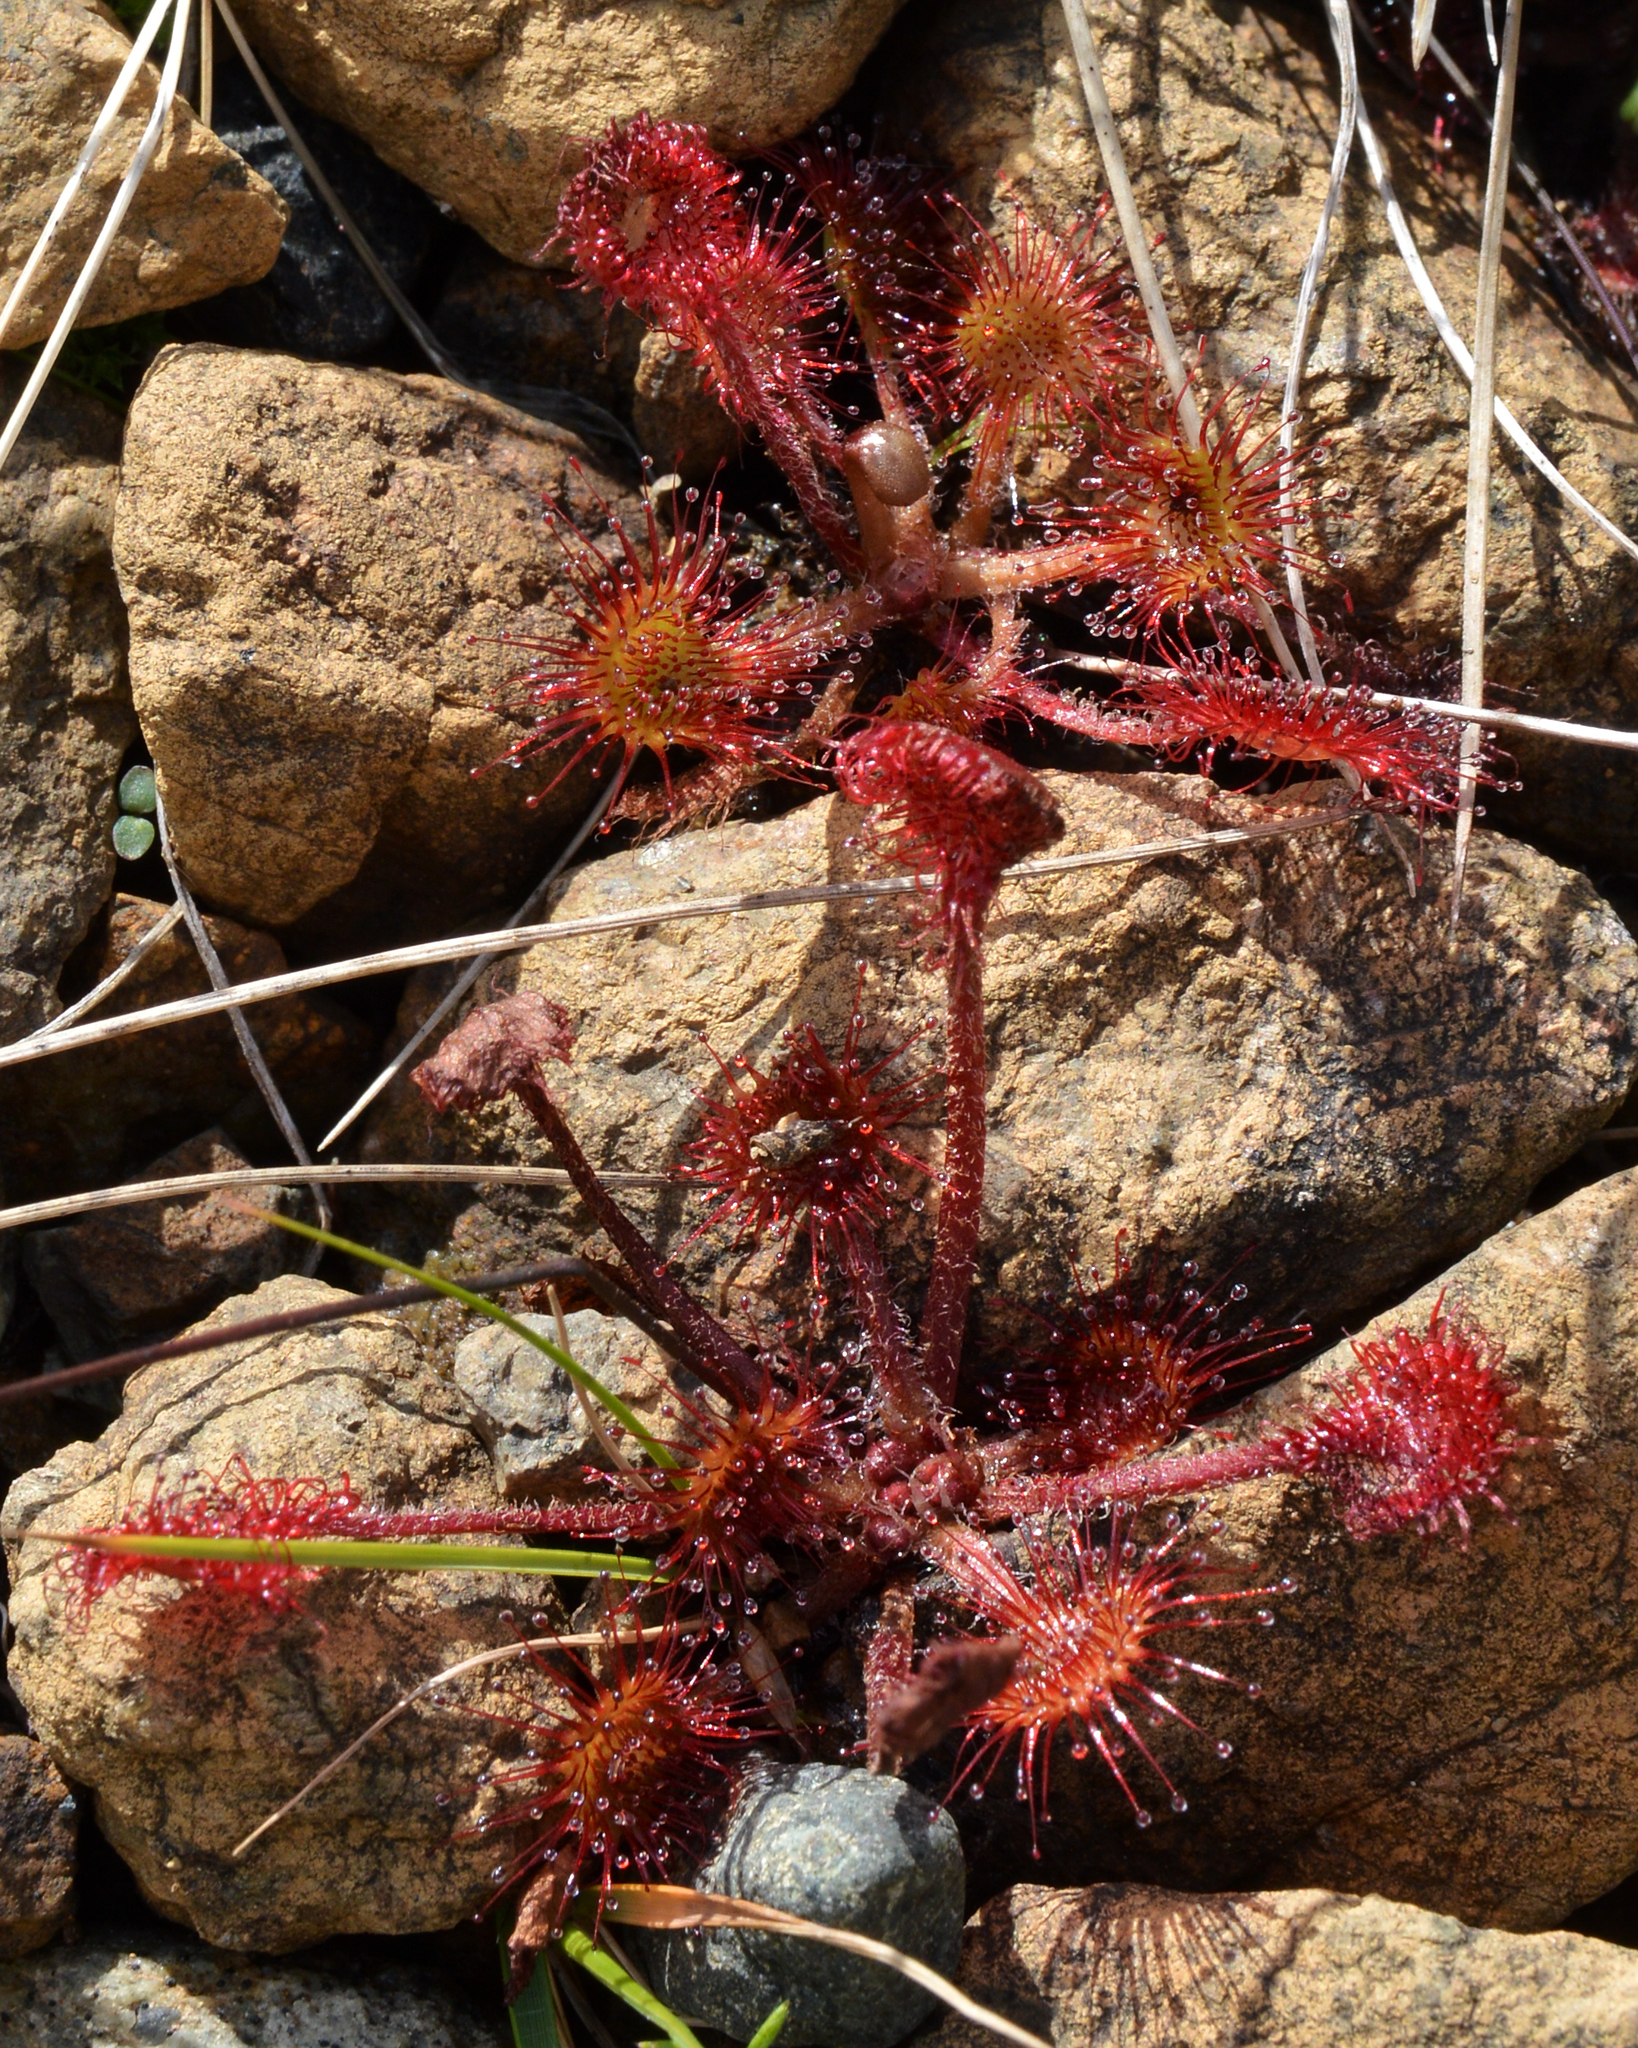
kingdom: Plantae
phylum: Tracheophyta
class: Magnoliopsida
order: Caryophyllales
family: Droseraceae
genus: Drosera
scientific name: Drosera rotundifolia
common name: Round-leaved sundew
